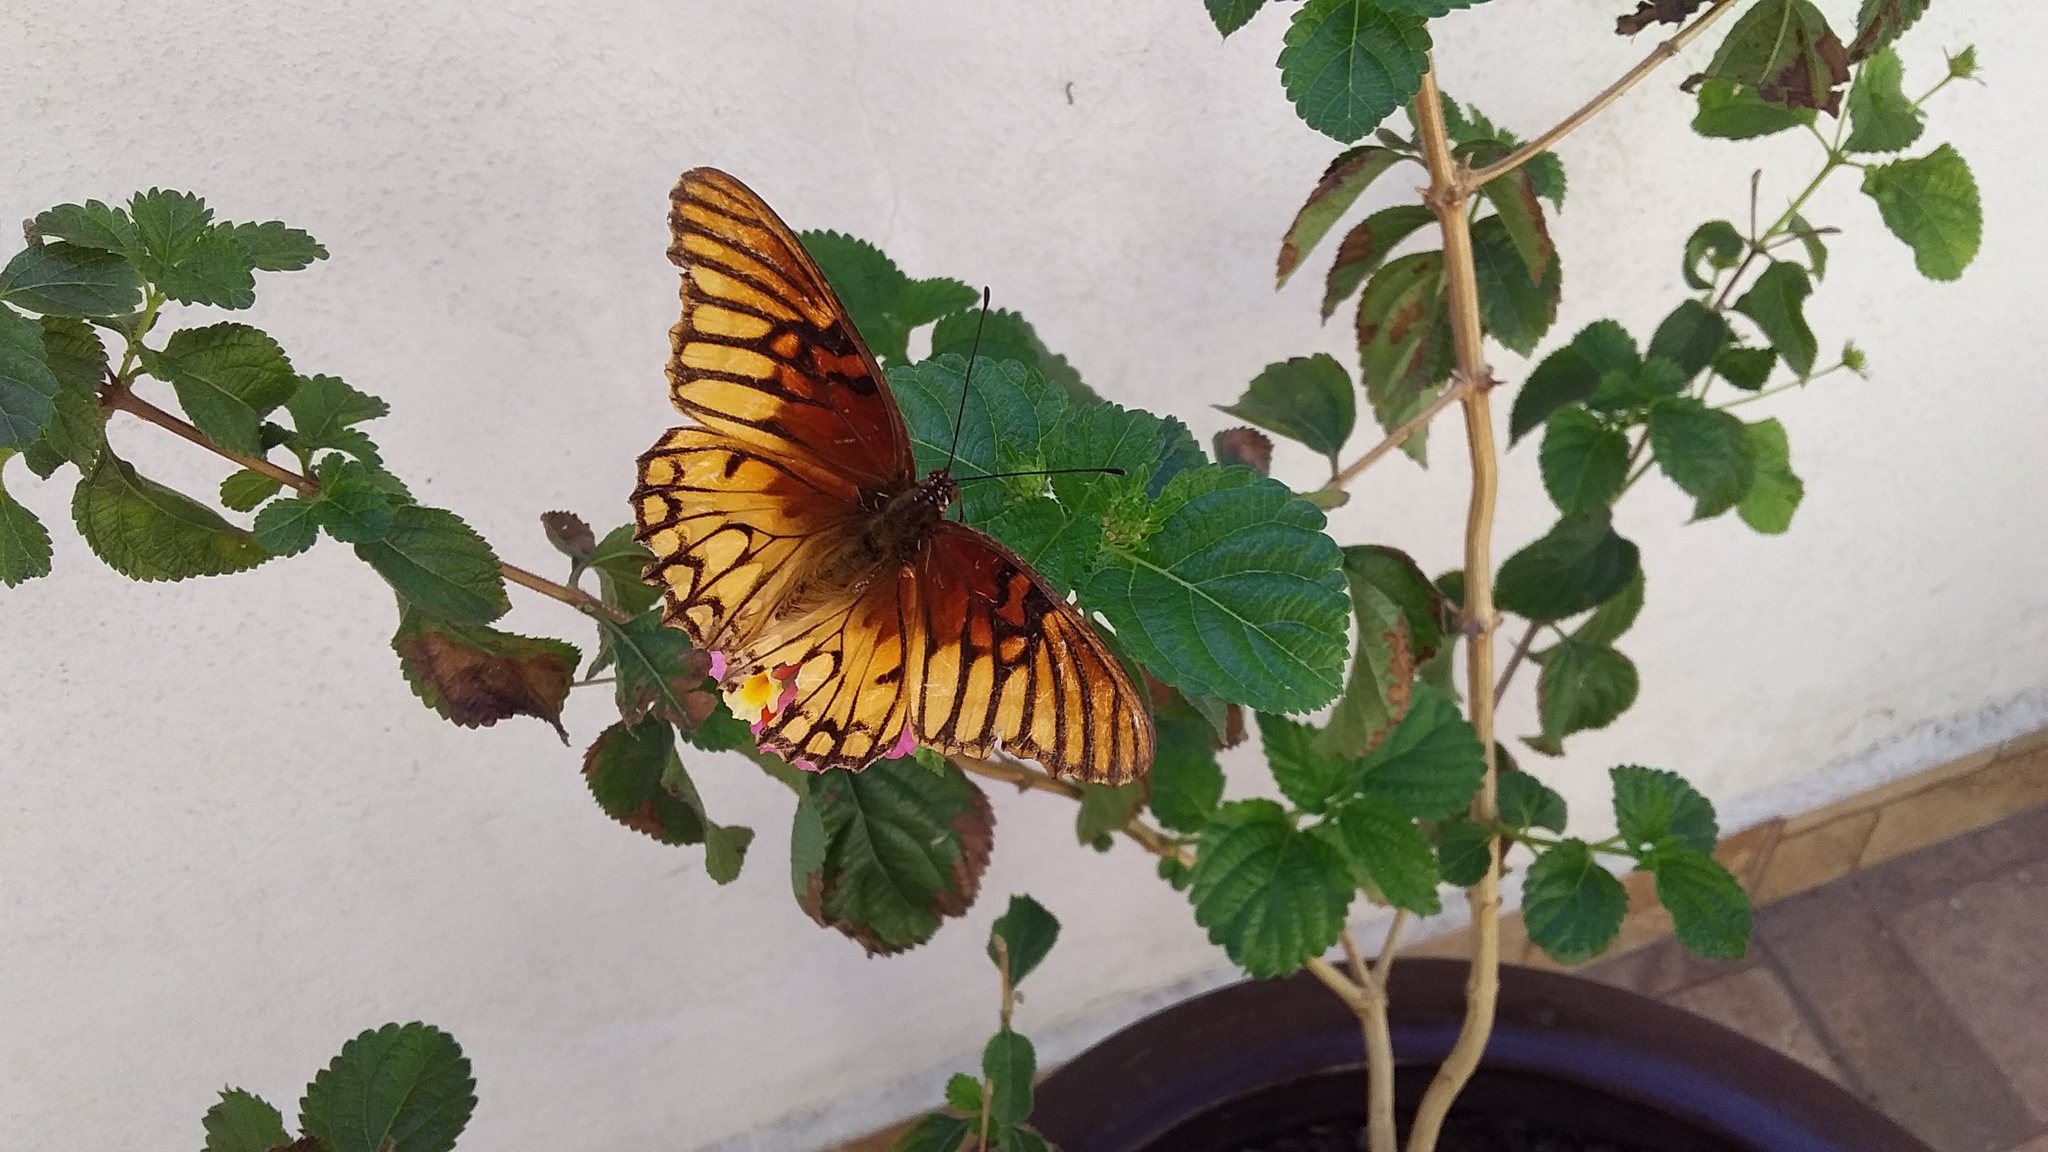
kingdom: Animalia
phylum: Arthropoda
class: Insecta
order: Lepidoptera
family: Nymphalidae
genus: Dione
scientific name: Dione moneta
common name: Mexican silverspot
